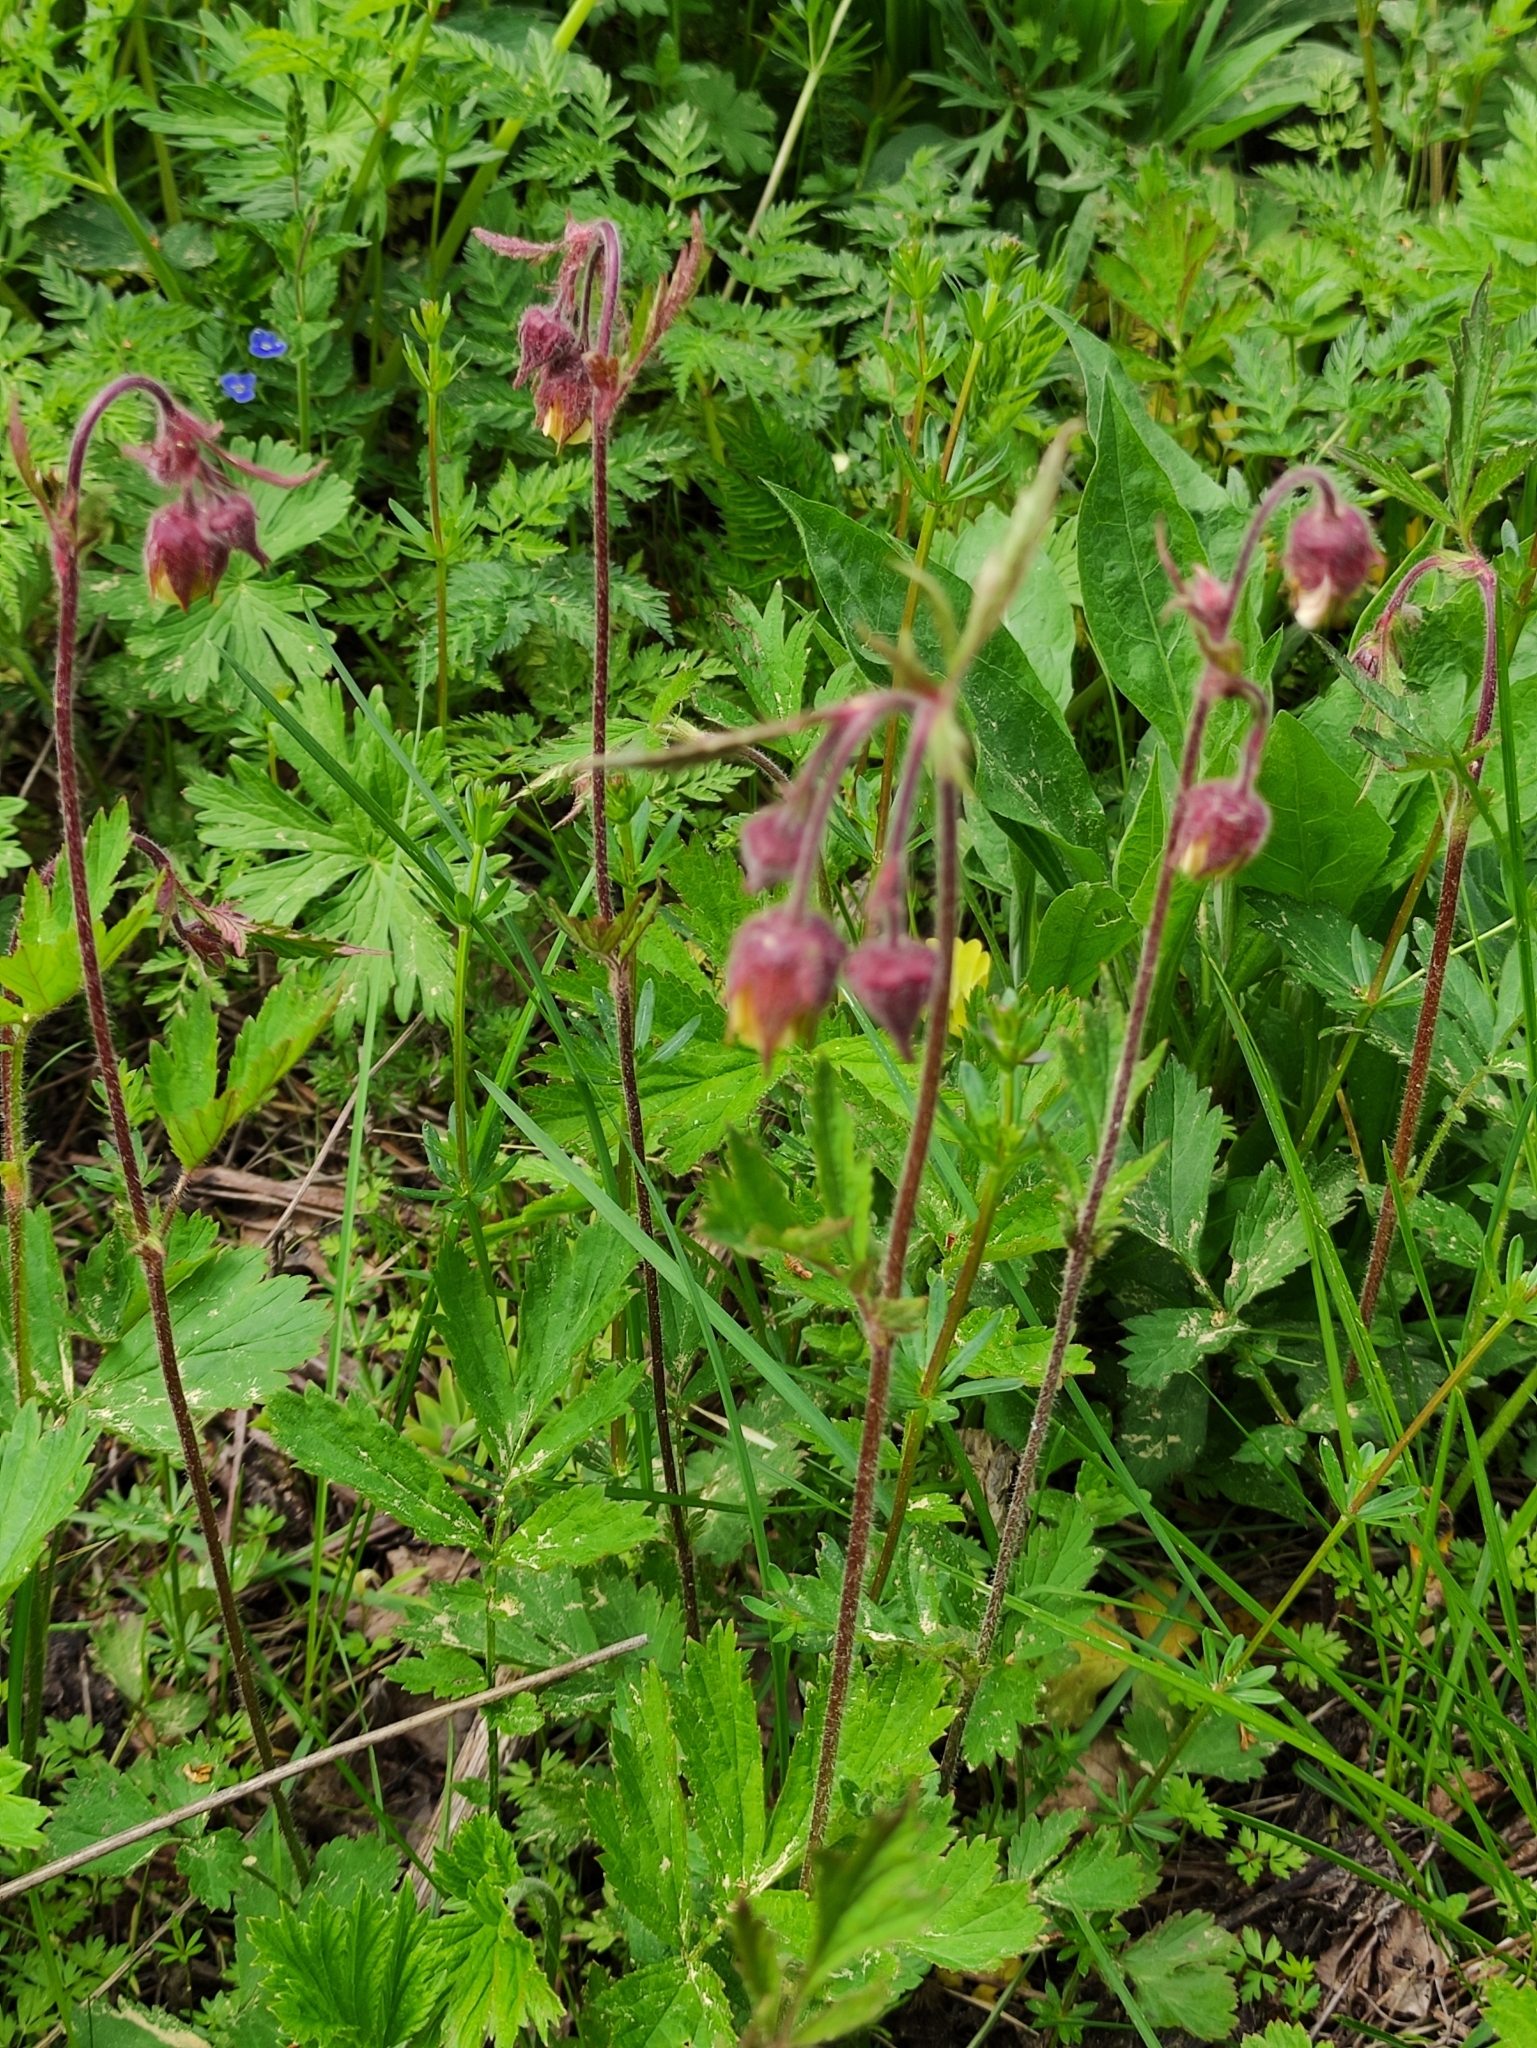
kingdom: Plantae
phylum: Tracheophyta
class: Magnoliopsida
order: Rosales
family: Rosaceae
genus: Geum
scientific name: Geum rivale
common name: Water avens
